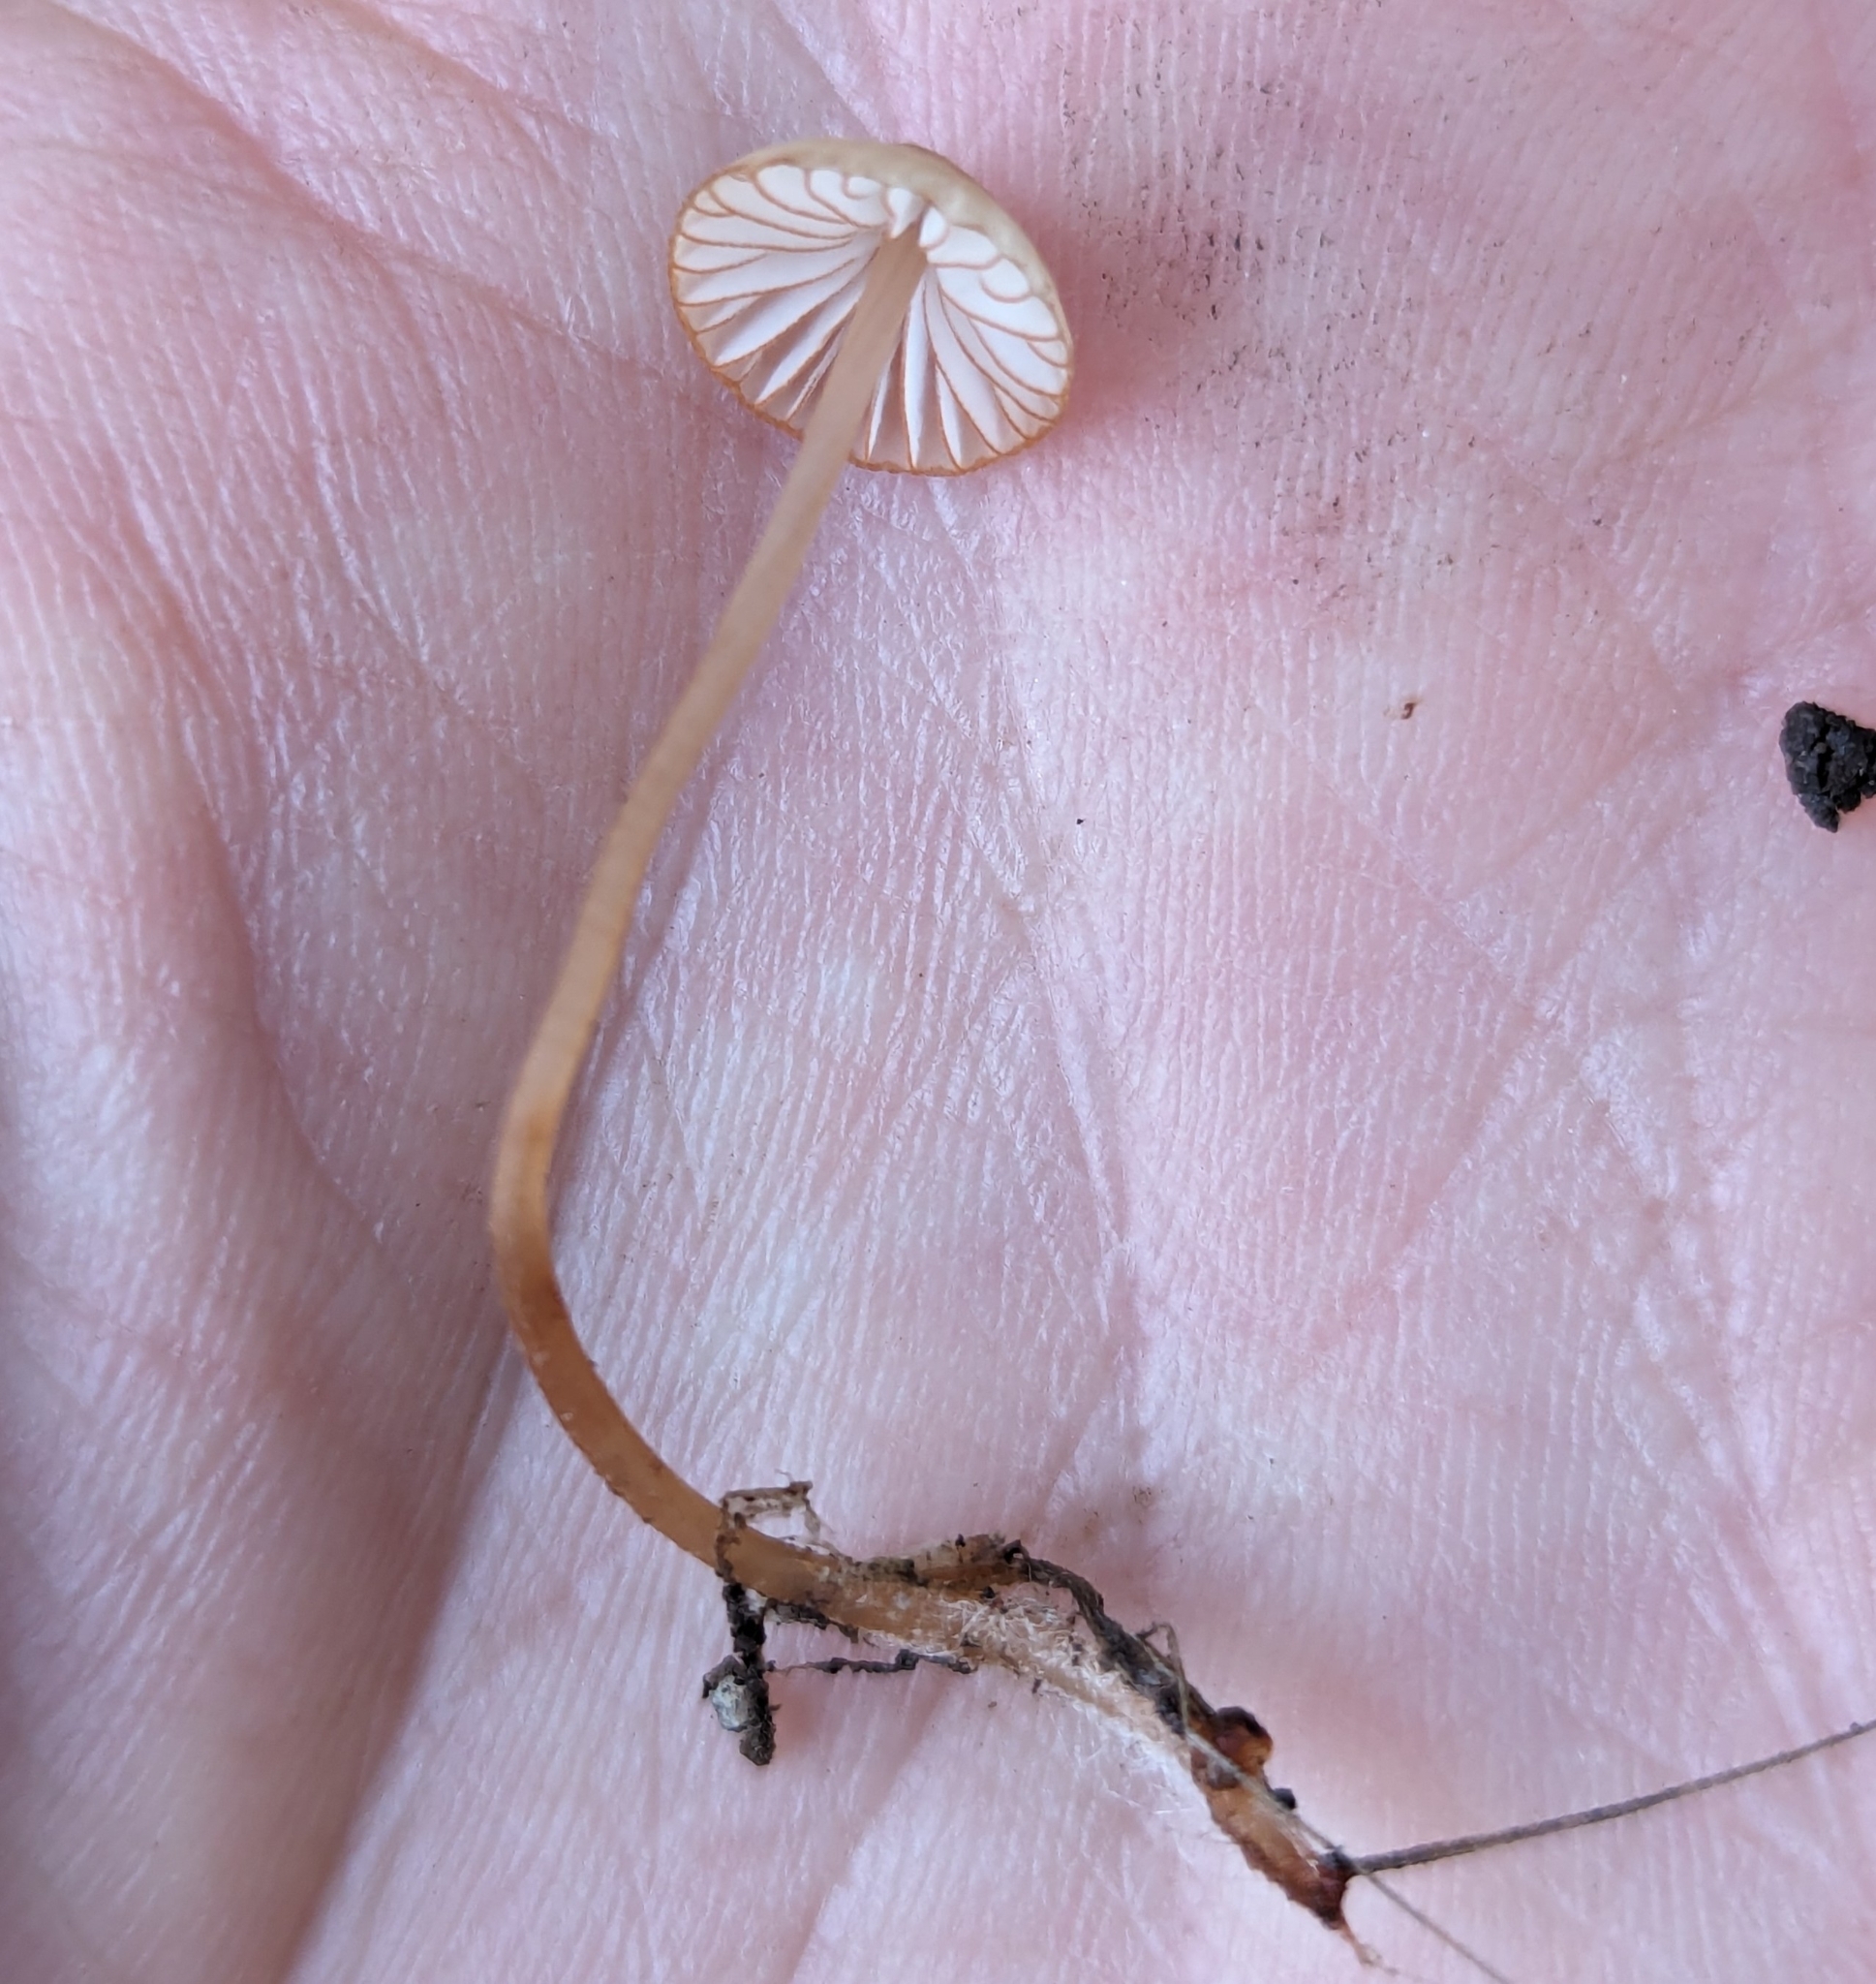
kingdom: Fungi
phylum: Basidiomycota
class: Agaricomycetes
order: Agaricales
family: Mycenaceae
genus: Mycena
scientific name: Mycena
